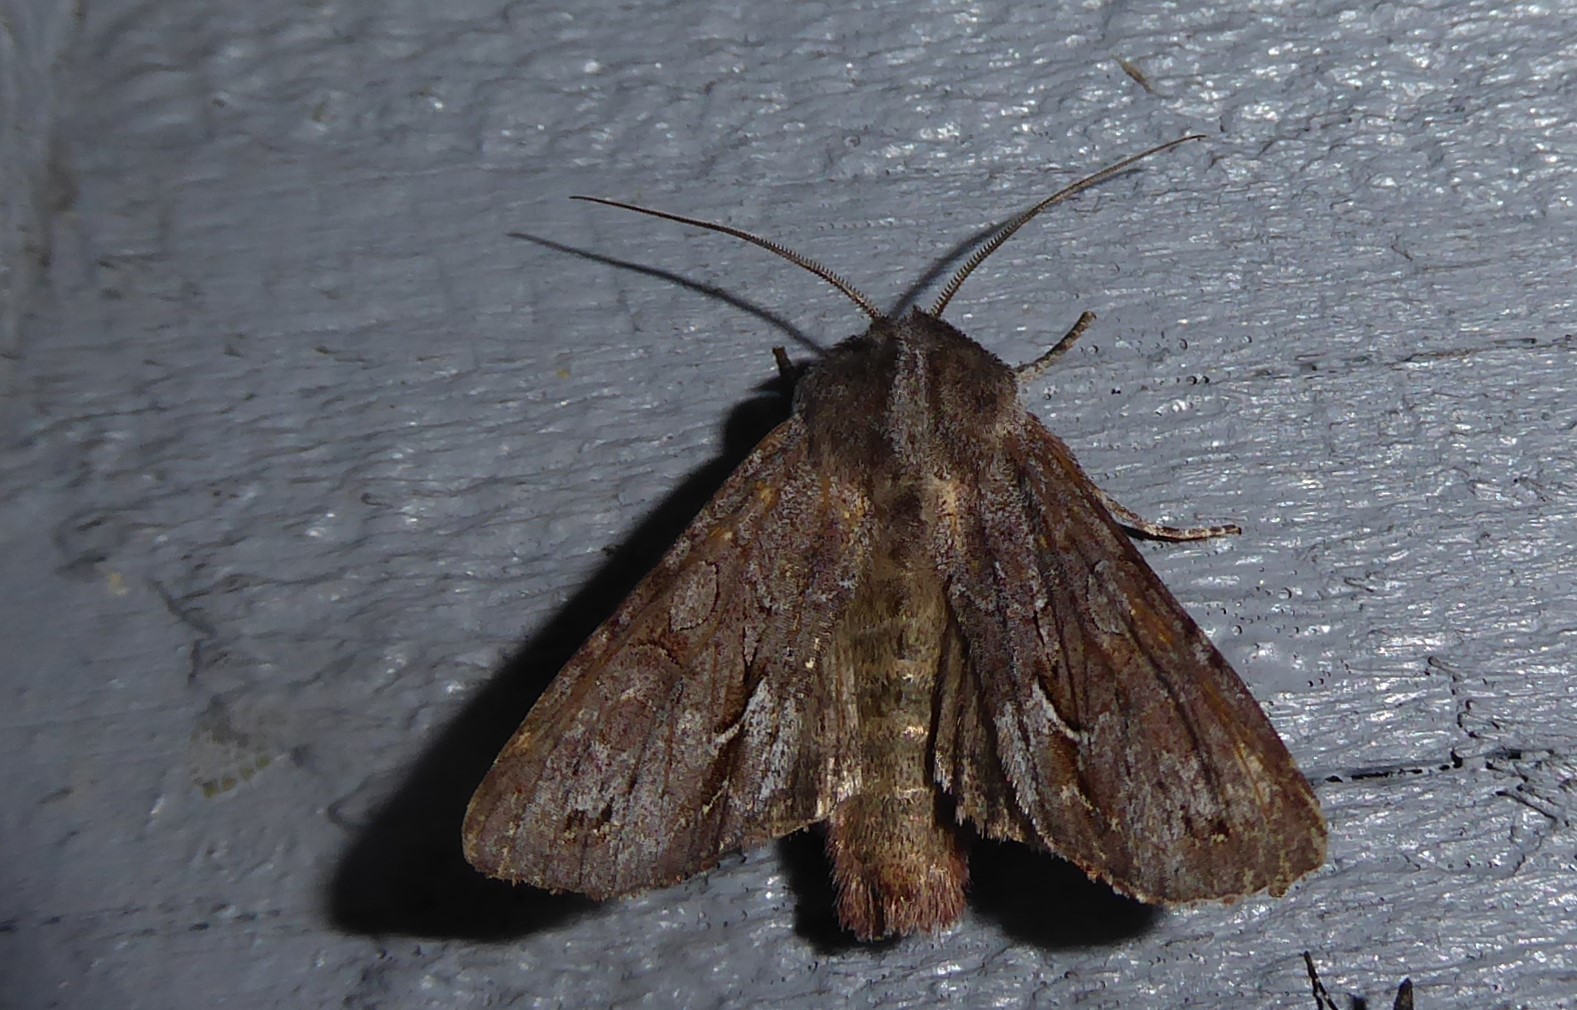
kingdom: Animalia
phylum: Arthropoda
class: Insecta
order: Lepidoptera
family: Noctuidae
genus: Ichneutica
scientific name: Ichneutica
